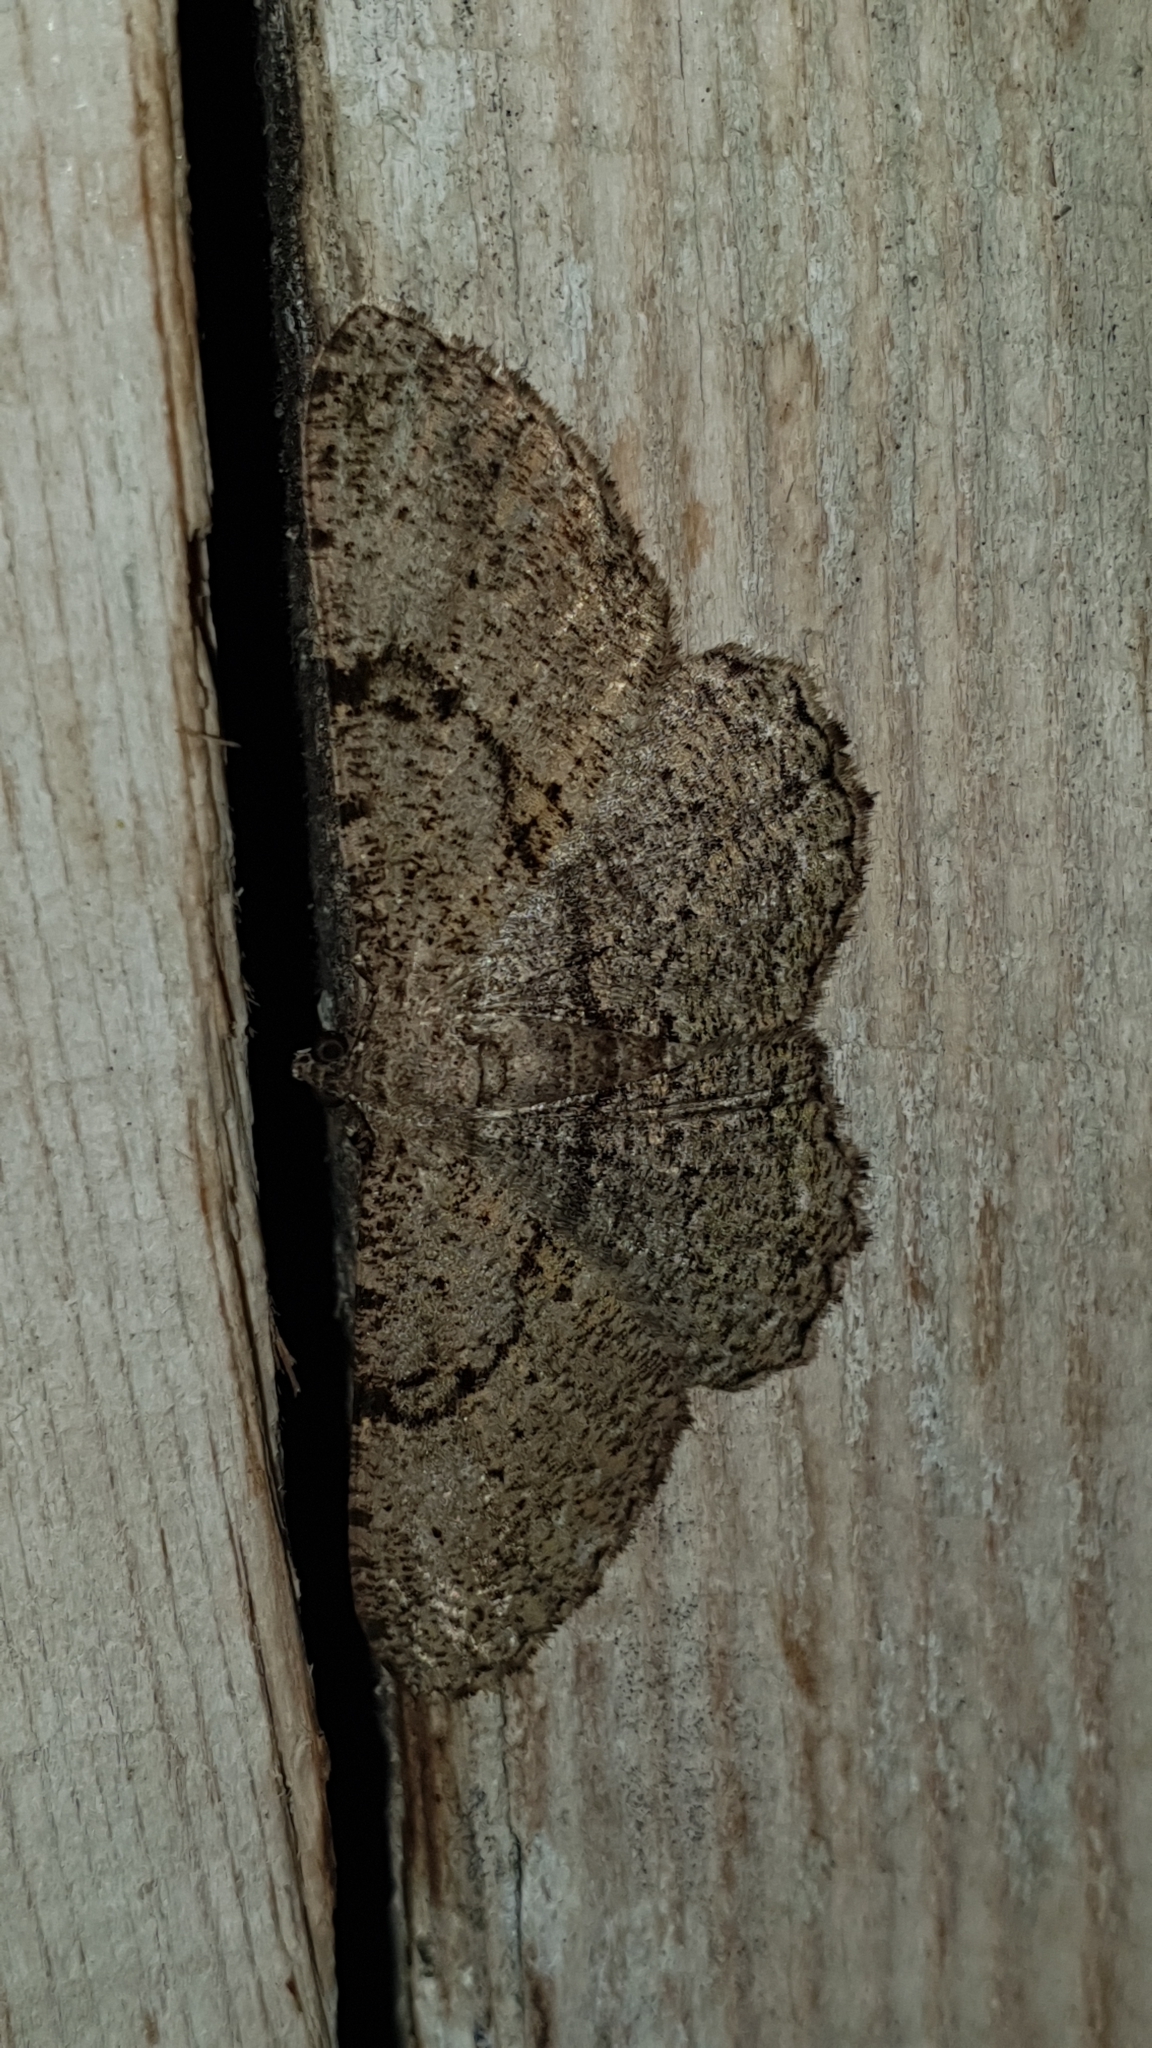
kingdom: Animalia
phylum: Arthropoda
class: Insecta
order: Lepidoptera
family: Geometridae
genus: Peribatodes
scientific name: Peribatodes rhomboidaria
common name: Willow beauty
